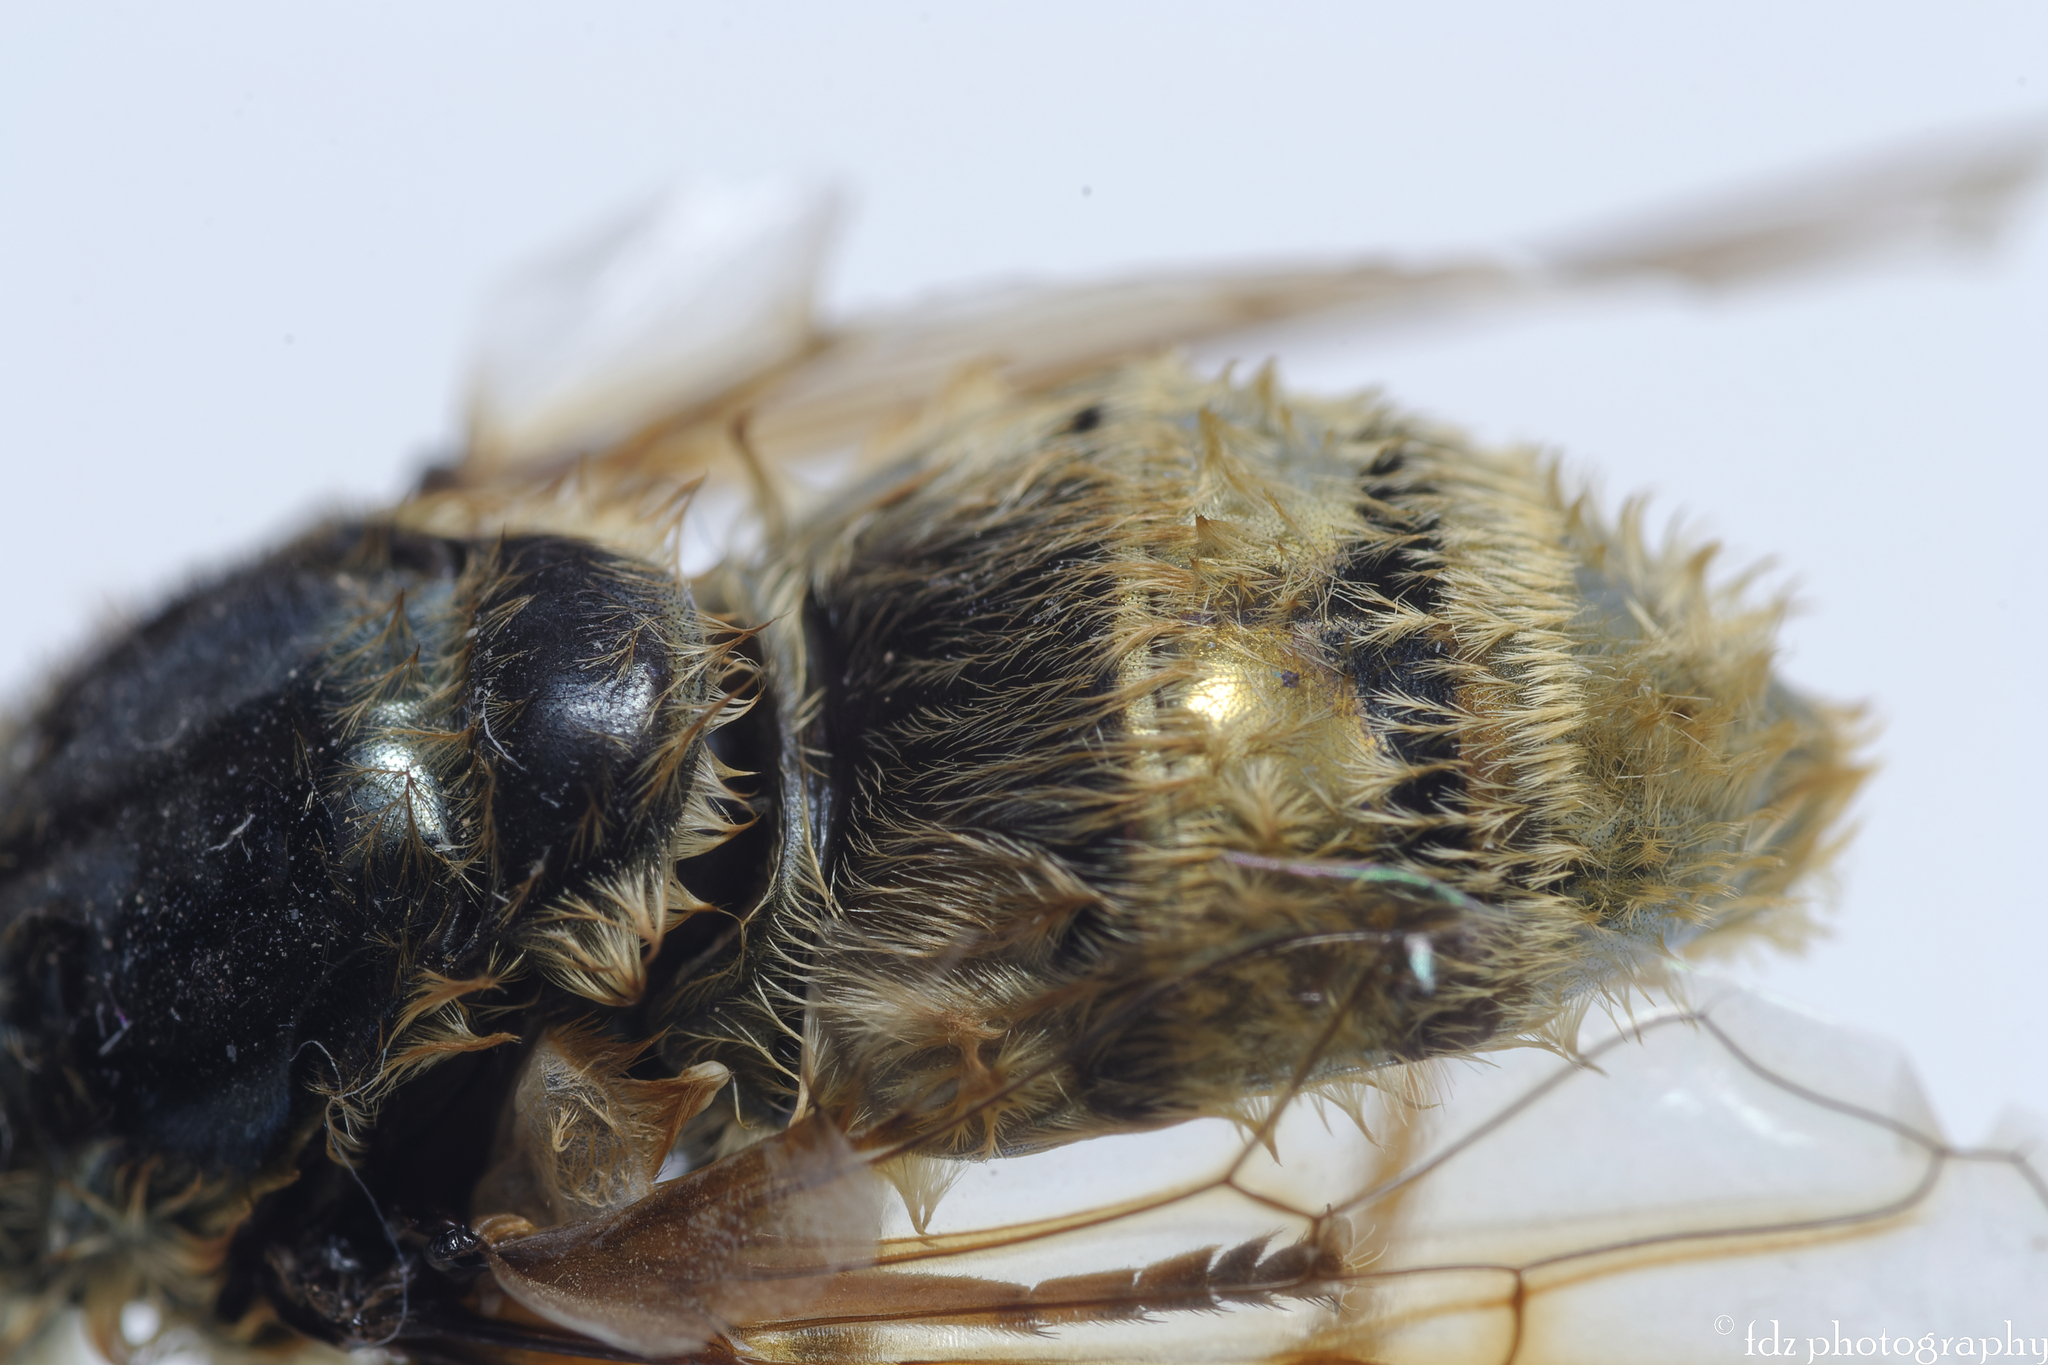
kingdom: Animalia
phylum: Arthropoda
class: Insecta
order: Diptera
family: Syrphidae
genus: Callicera
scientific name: Callicera spinolae
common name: Golden hoverfly
